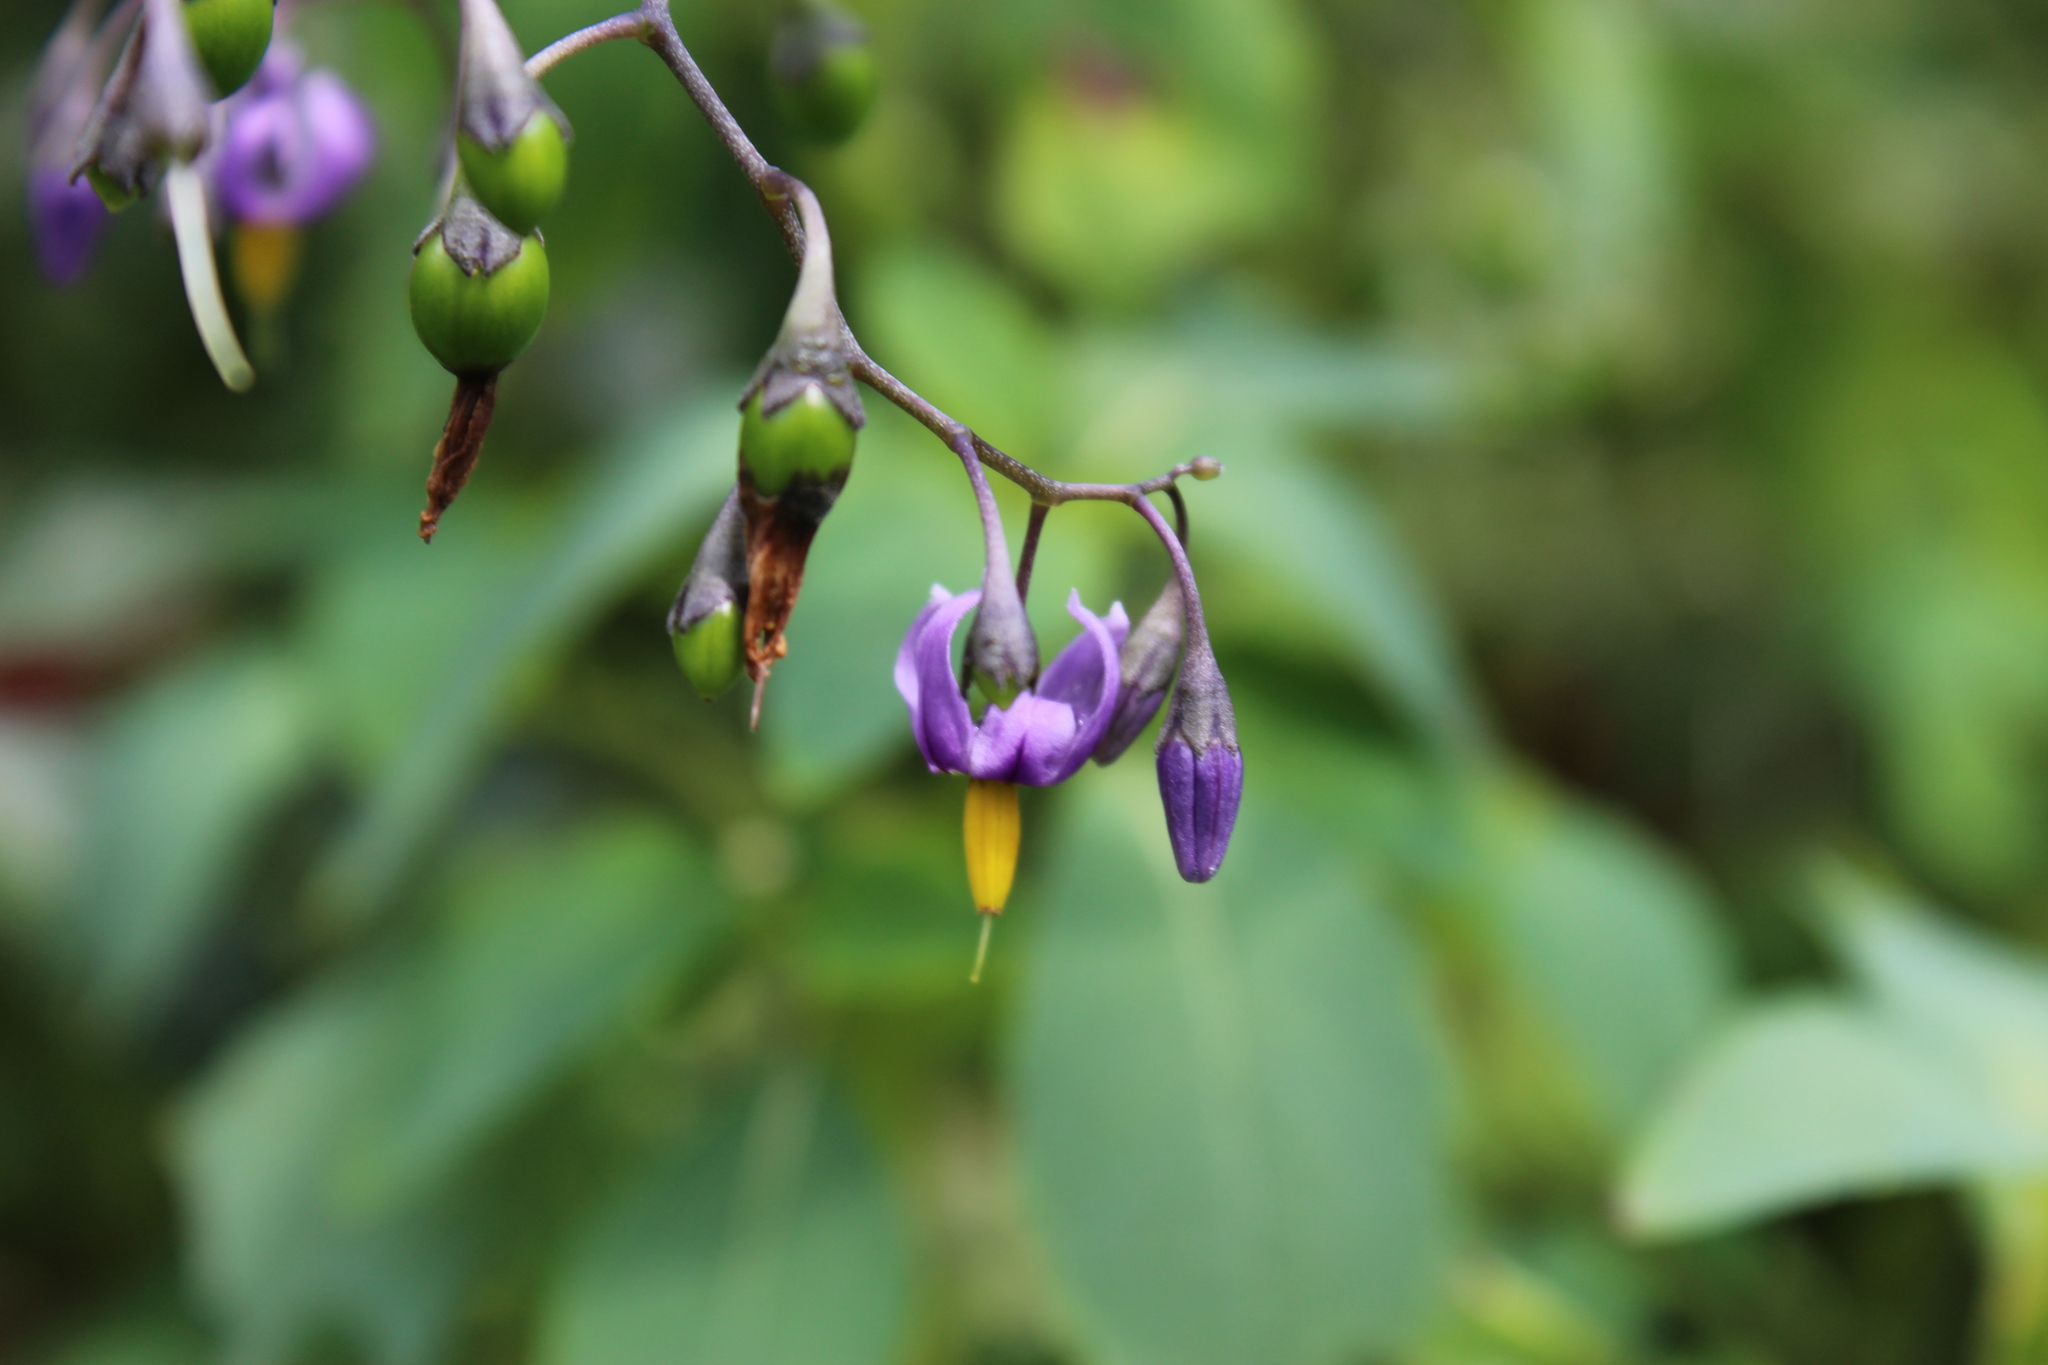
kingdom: Plantae
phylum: Tracheophyta
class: Magnoliopsida
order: Solanales
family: Solanaceae
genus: Solanum
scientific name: Solanum dulcamara
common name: Climbing nightshade
